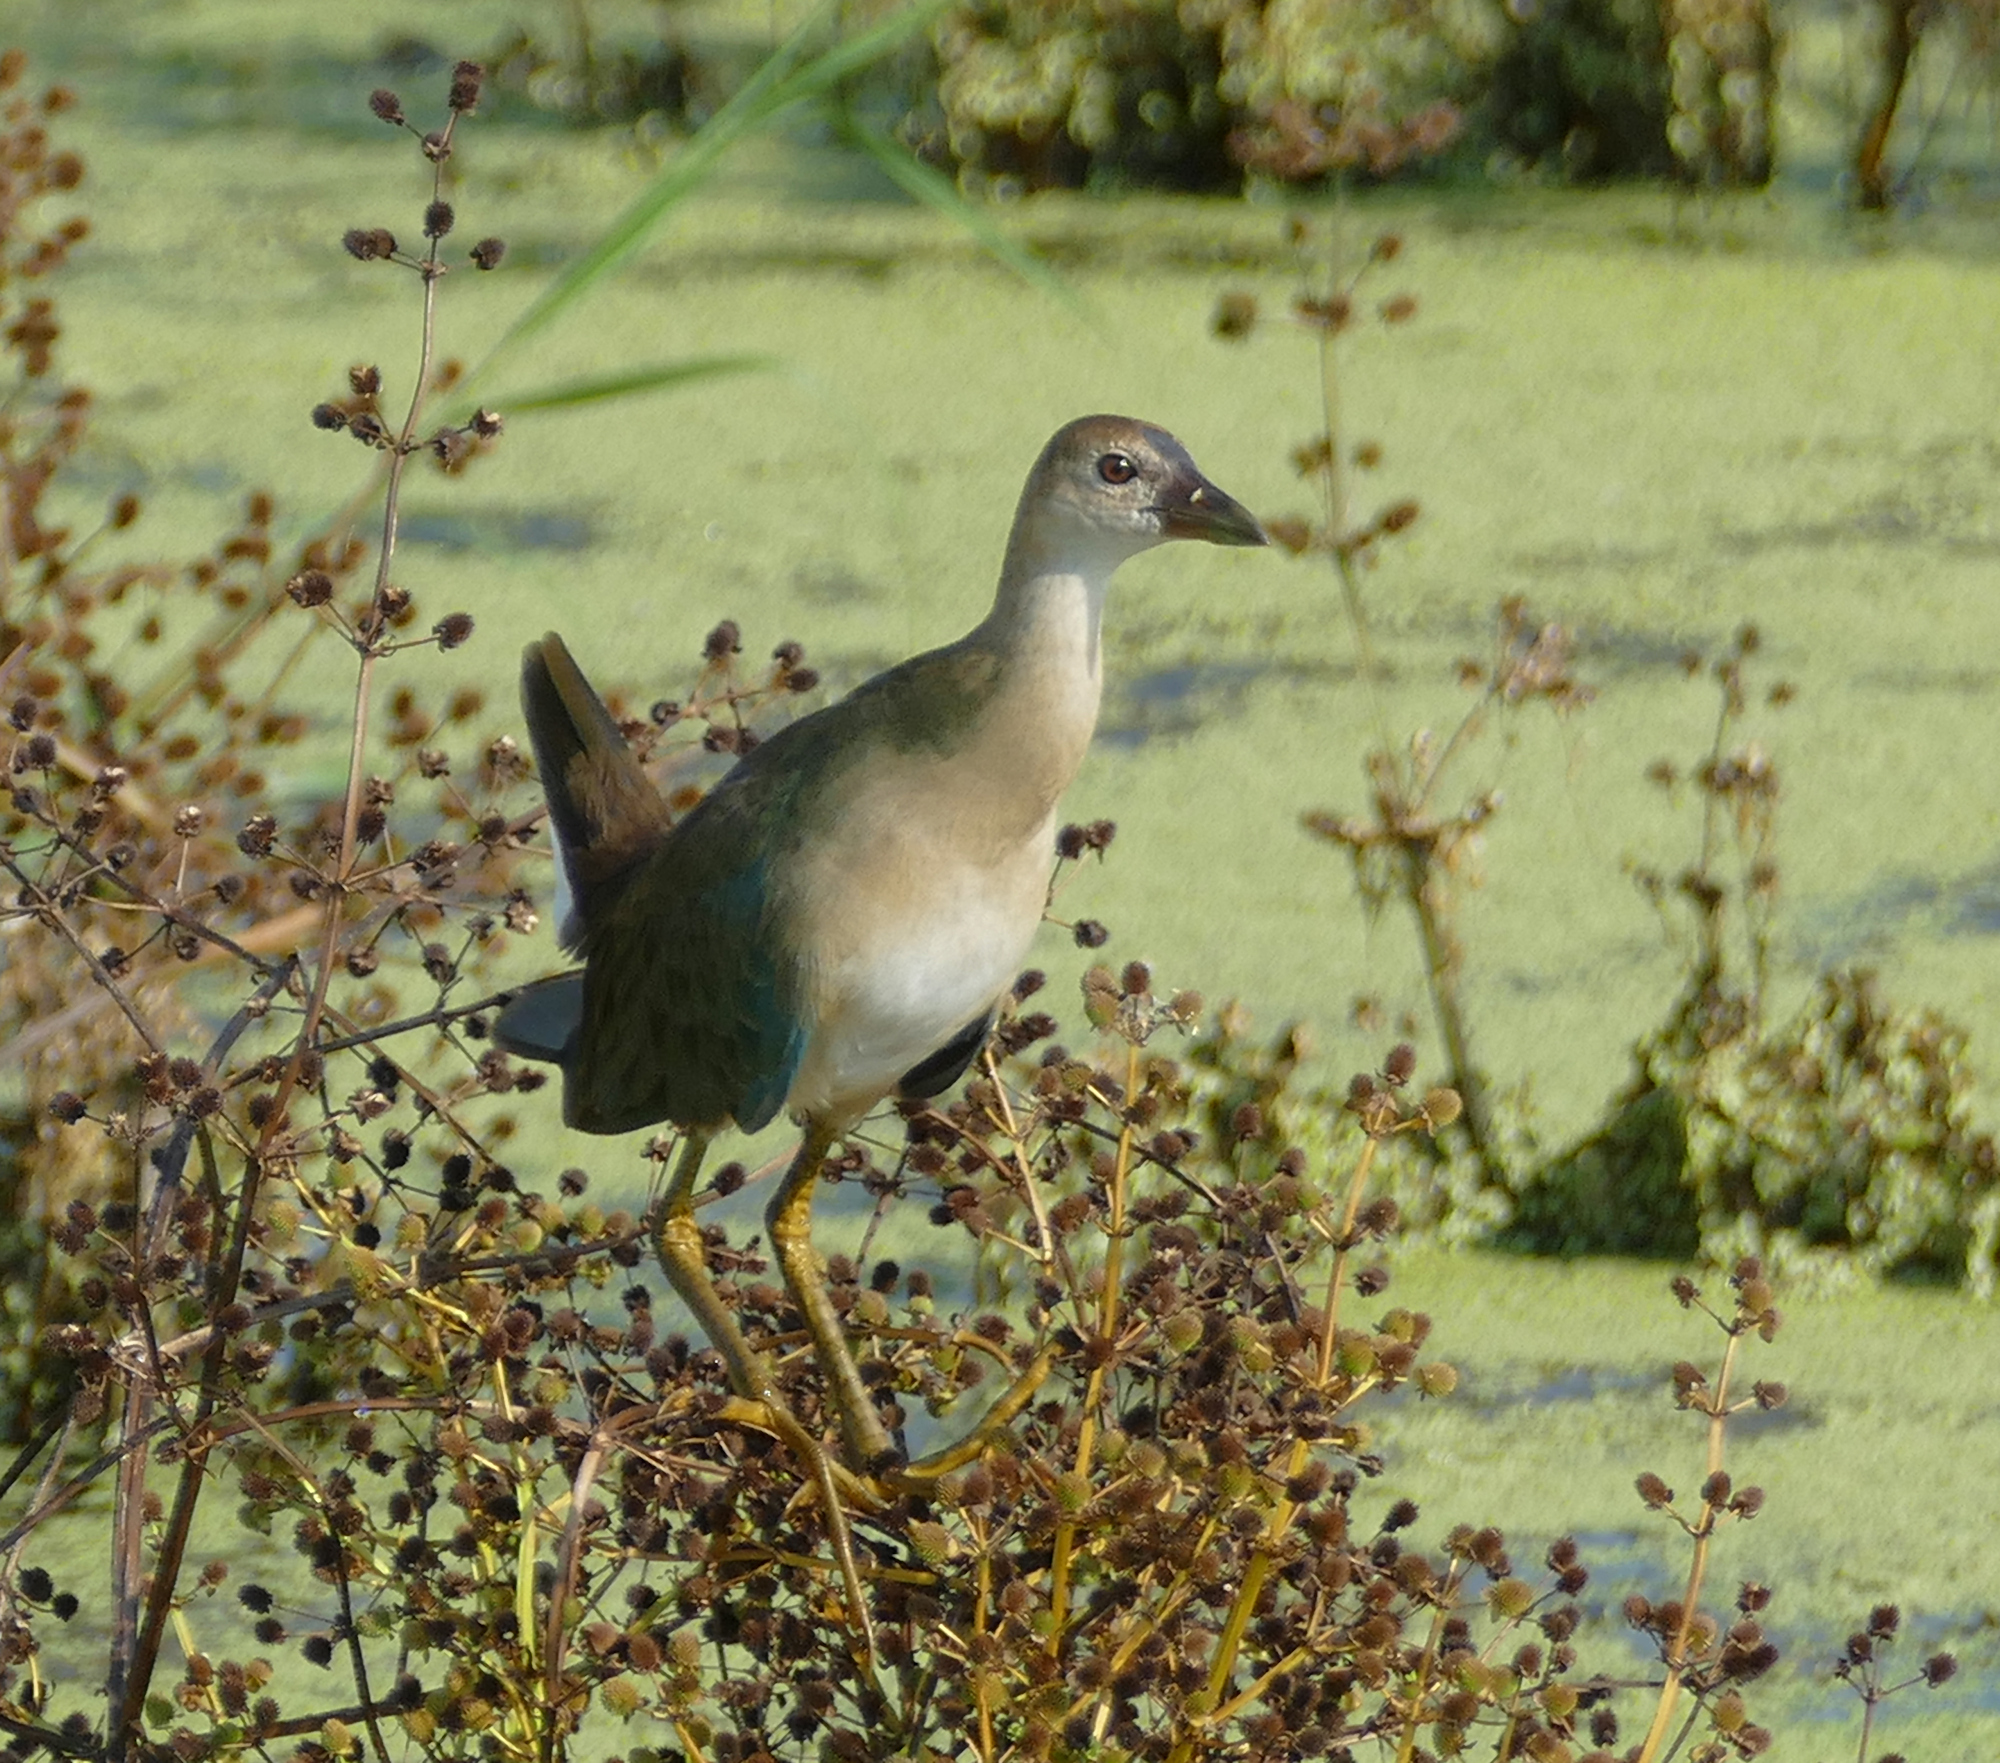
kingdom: Animalia
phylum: Chordata
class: Aves
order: Gruiformes
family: Rallidae
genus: Porphyrio
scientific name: Porphyrio martinica
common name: Purple gallinule
